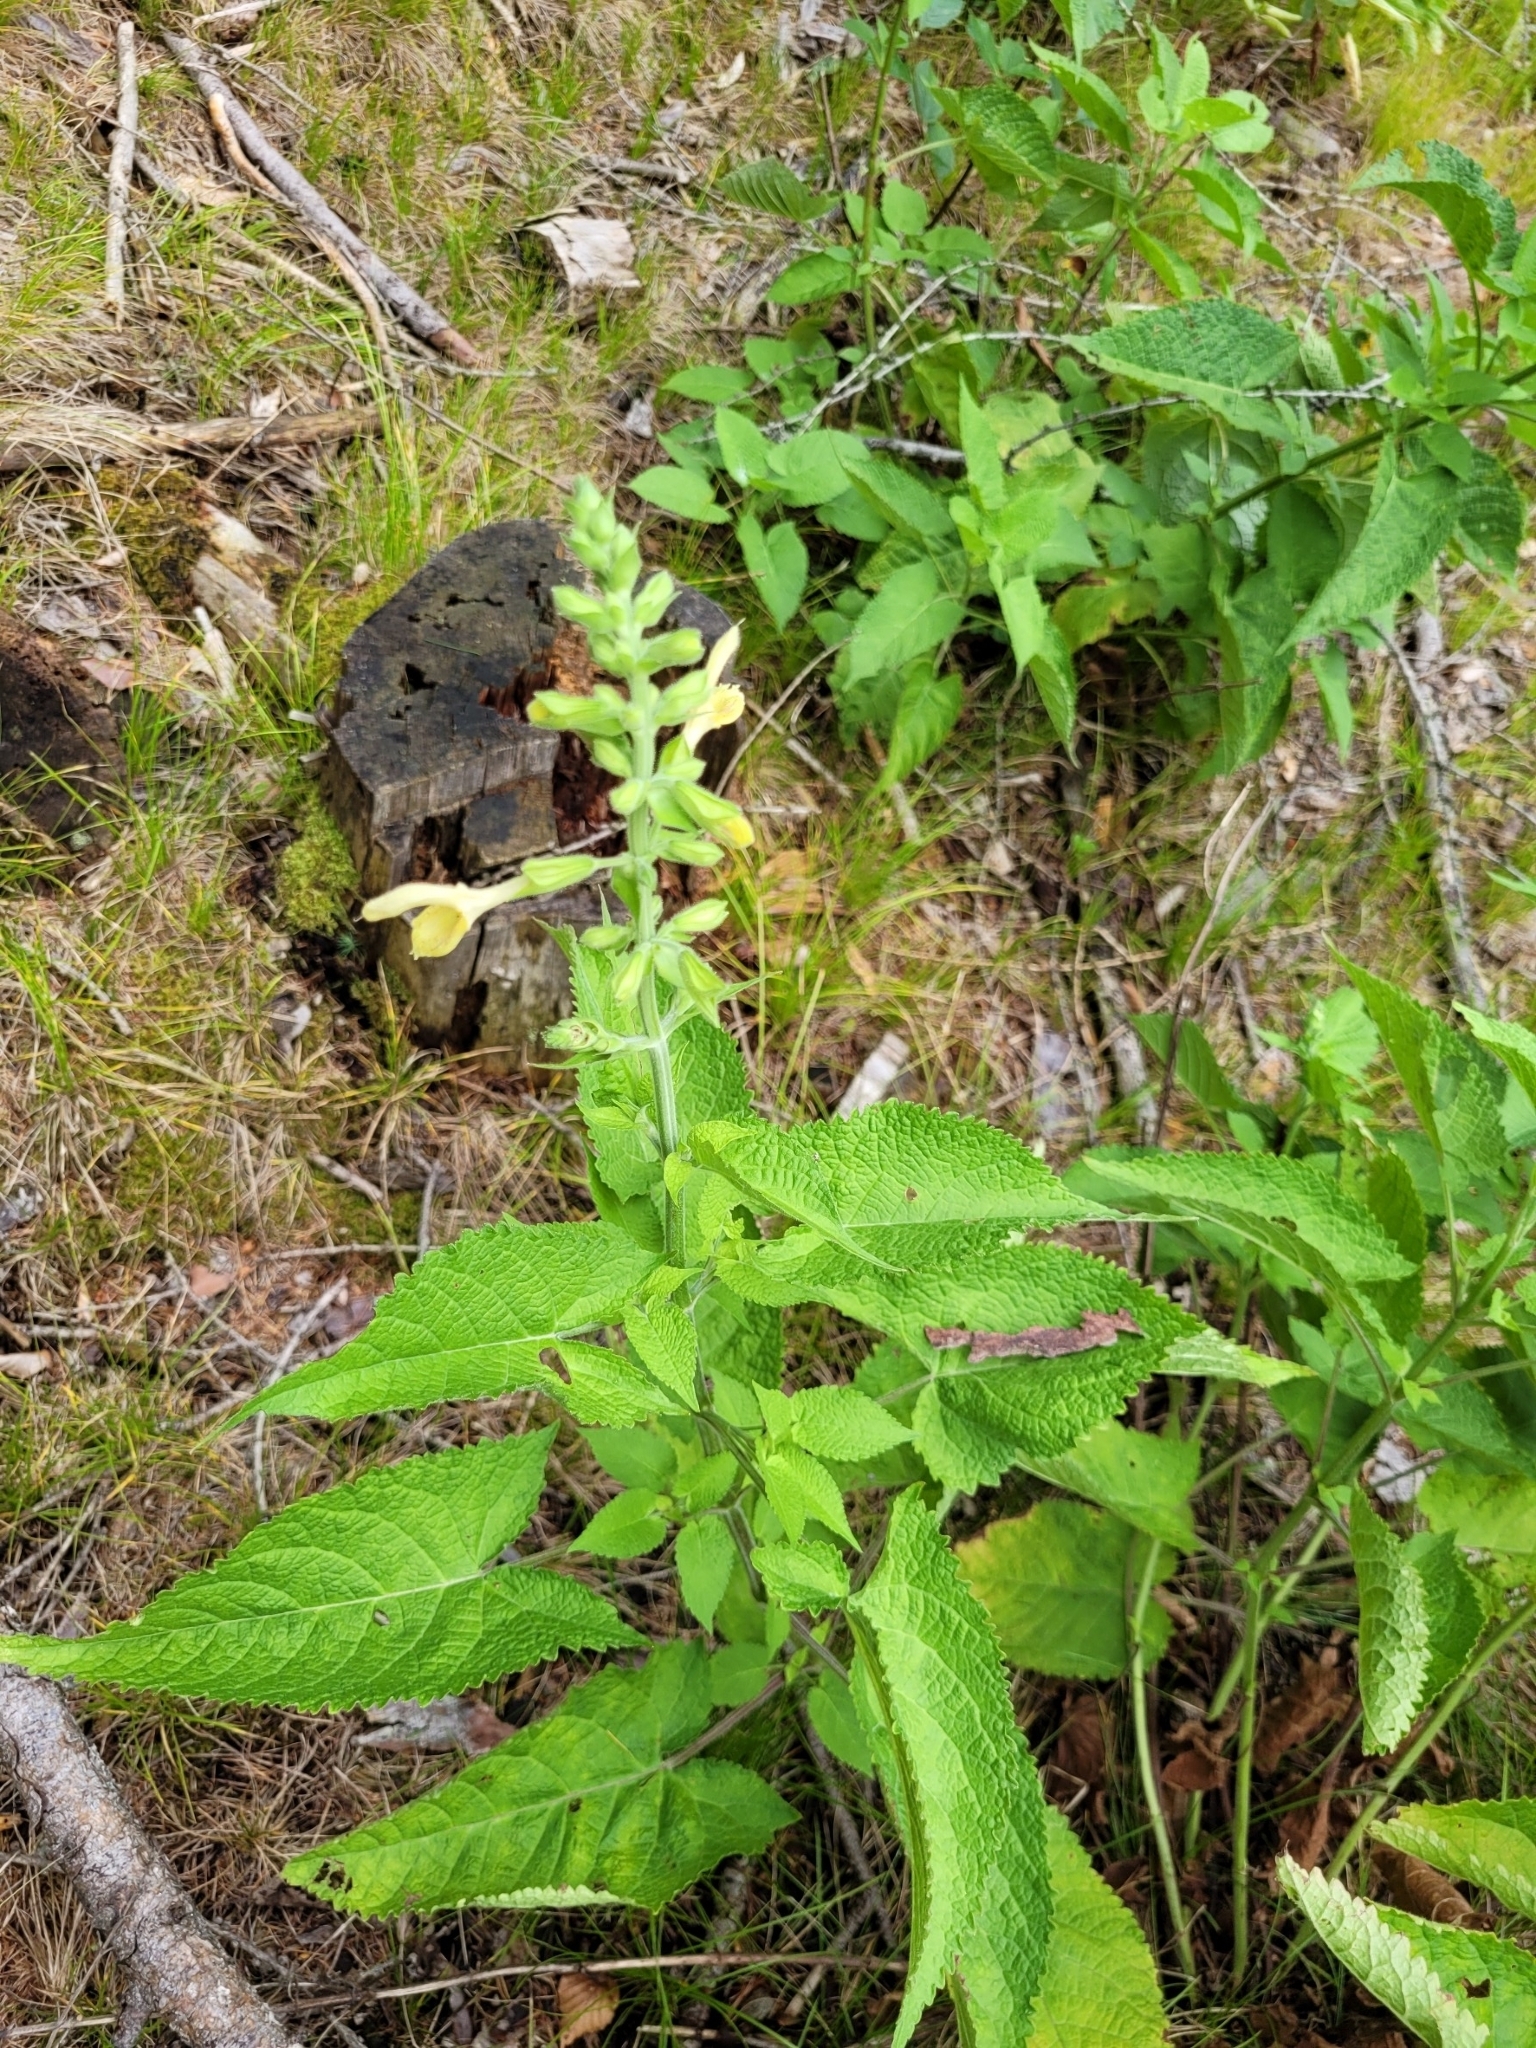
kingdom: Plantae
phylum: Tracheophyta
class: Magnoliopsida
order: Lamiales
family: Lamiaceae
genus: Salvia
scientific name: Salvia glutinosa
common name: Sticky clary
